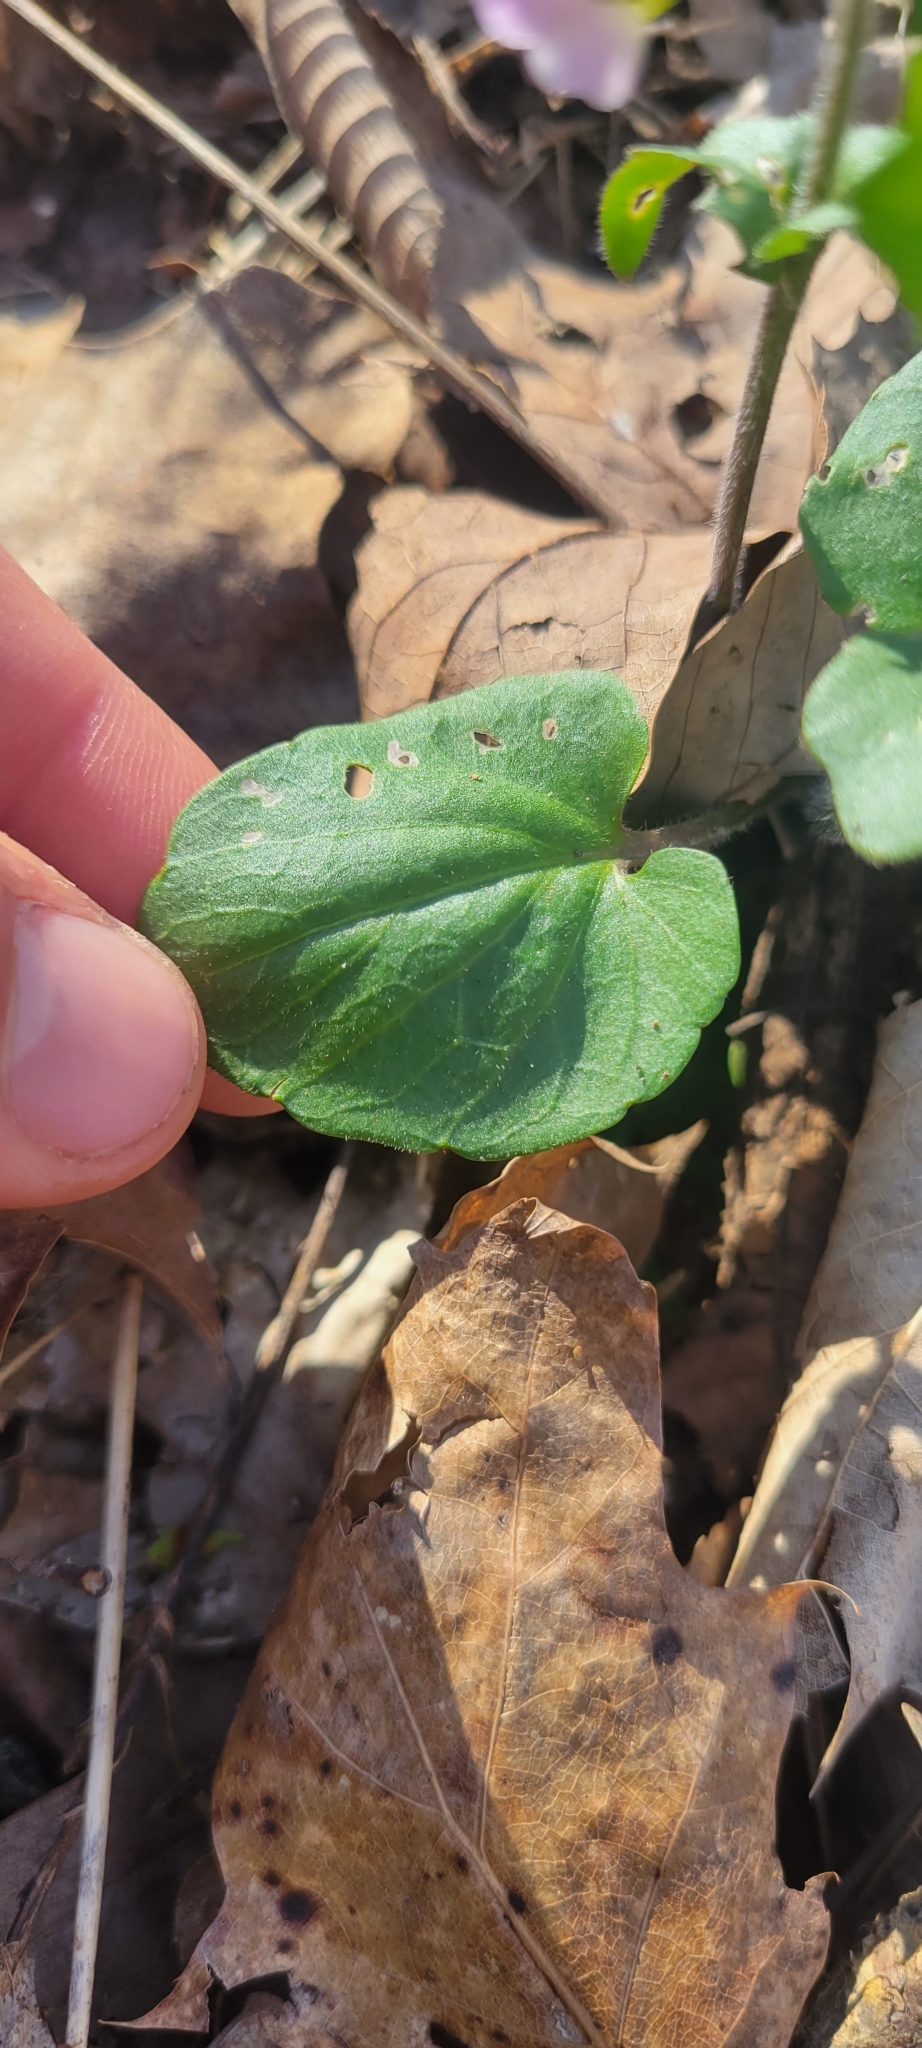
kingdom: Plantae
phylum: Tracheophyta
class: Magnoliopsida
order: Brassicales
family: Brassicaceae
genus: Cardamine
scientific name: Cardamine douglassii
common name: Purple cress
